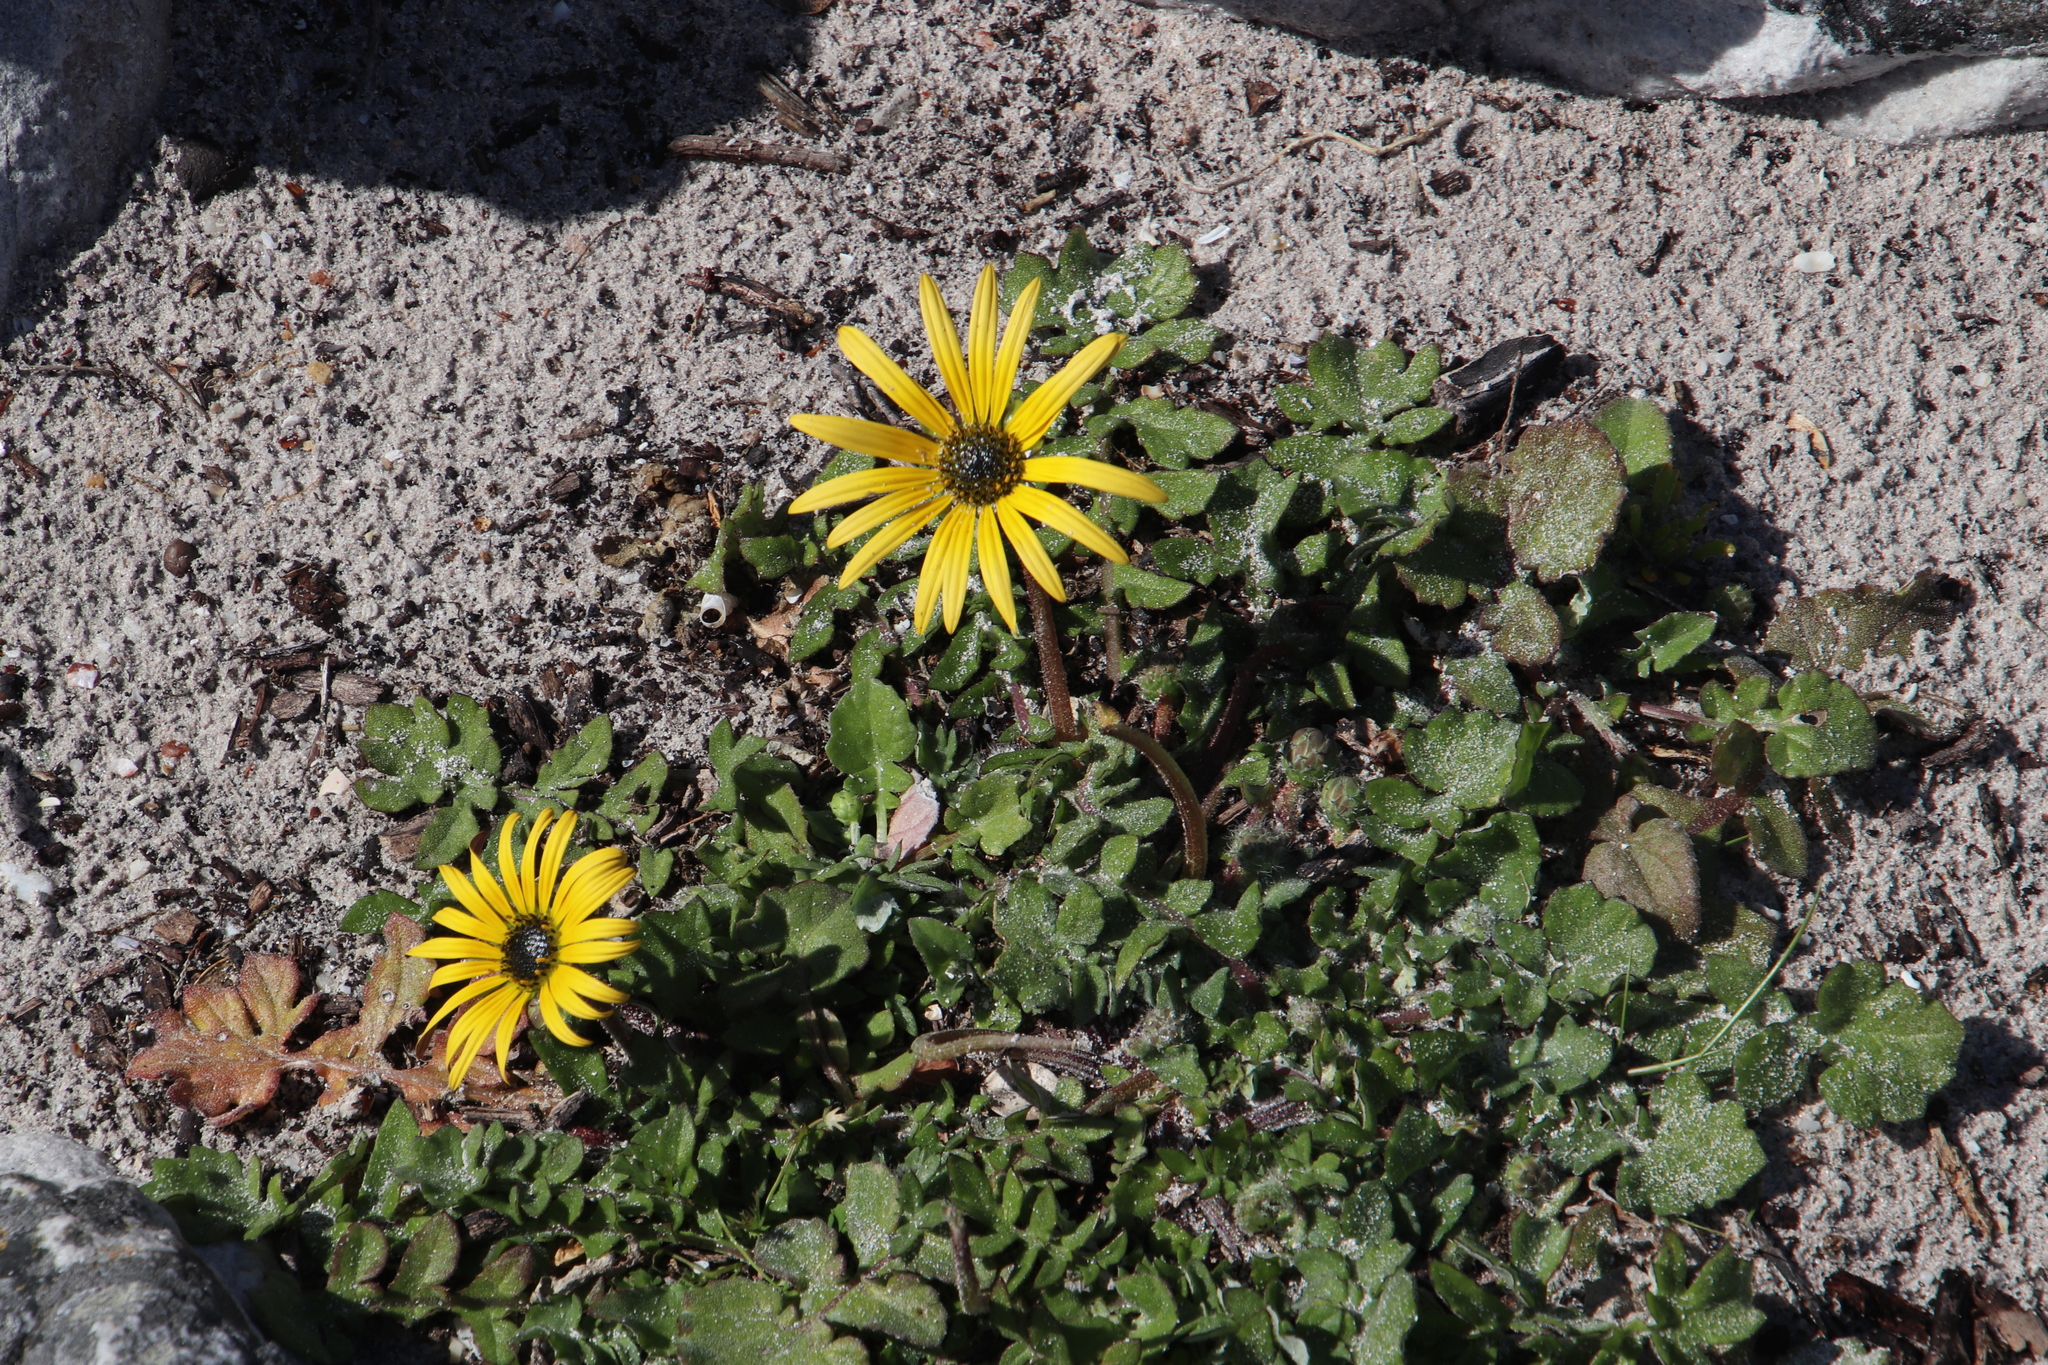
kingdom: Plantae
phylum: Tracheophyta
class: Magnoliopsida
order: Asterales
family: Asteraceae
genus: Arctotheca
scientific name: Arctotheca calendula
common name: Capeweed
